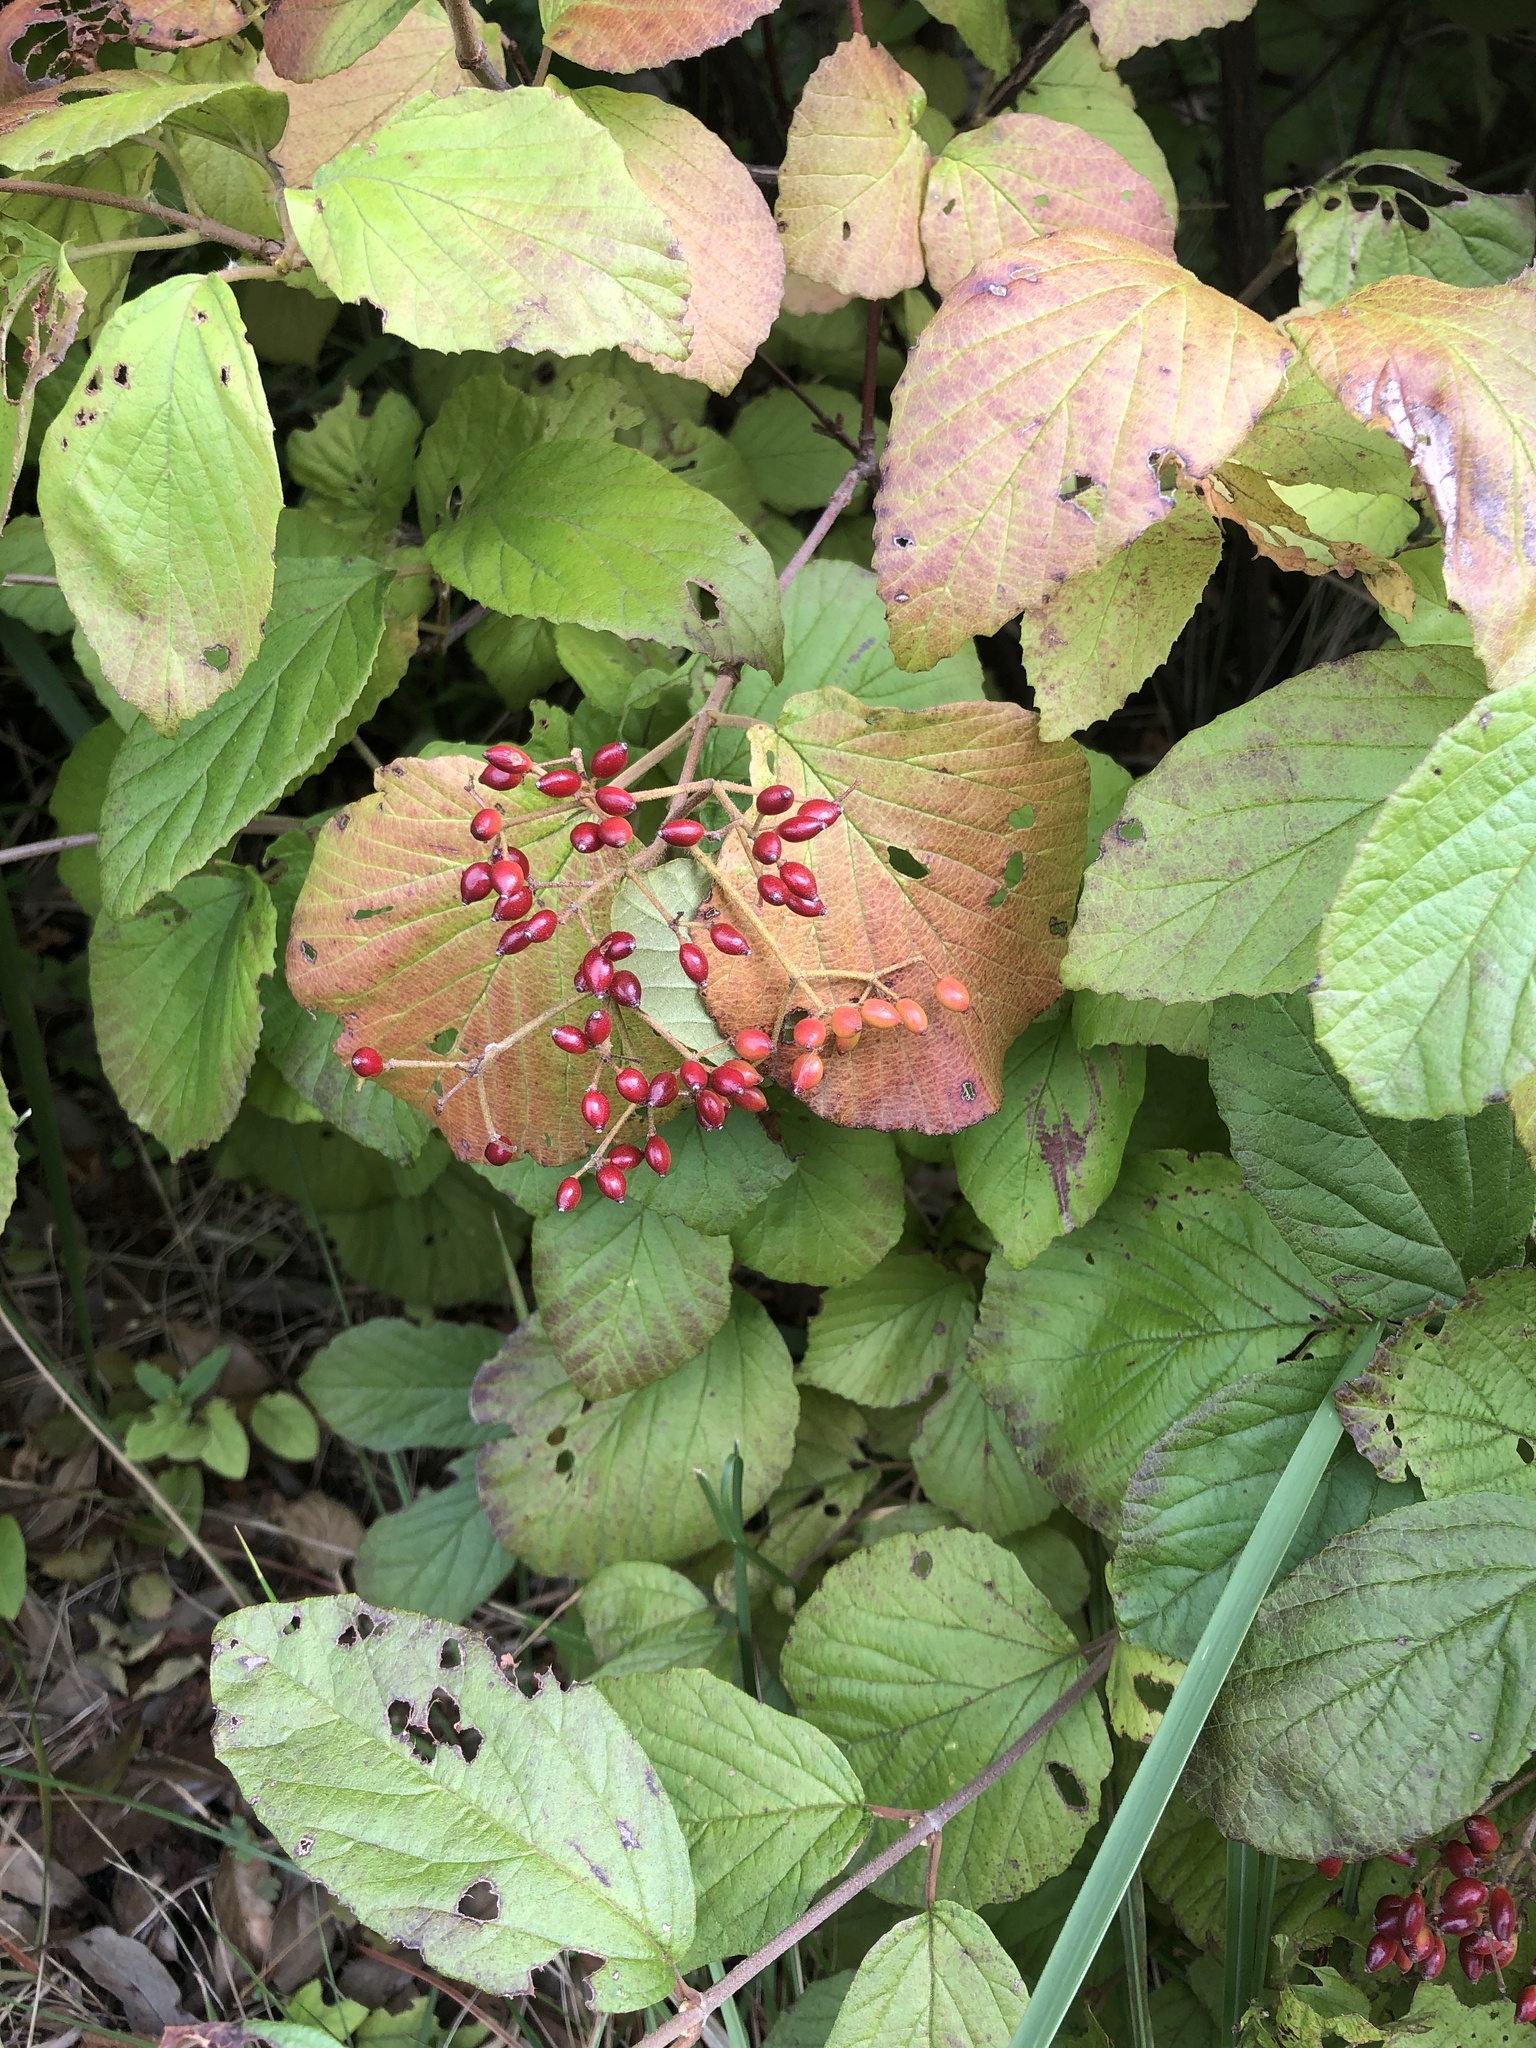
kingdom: Plantae
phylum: Tracheophyta
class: Magnoliopsida
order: Dipsacales
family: Viburnaceae
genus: Viburnum
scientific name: Viburnum dilatatum
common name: Linden arrowwood
